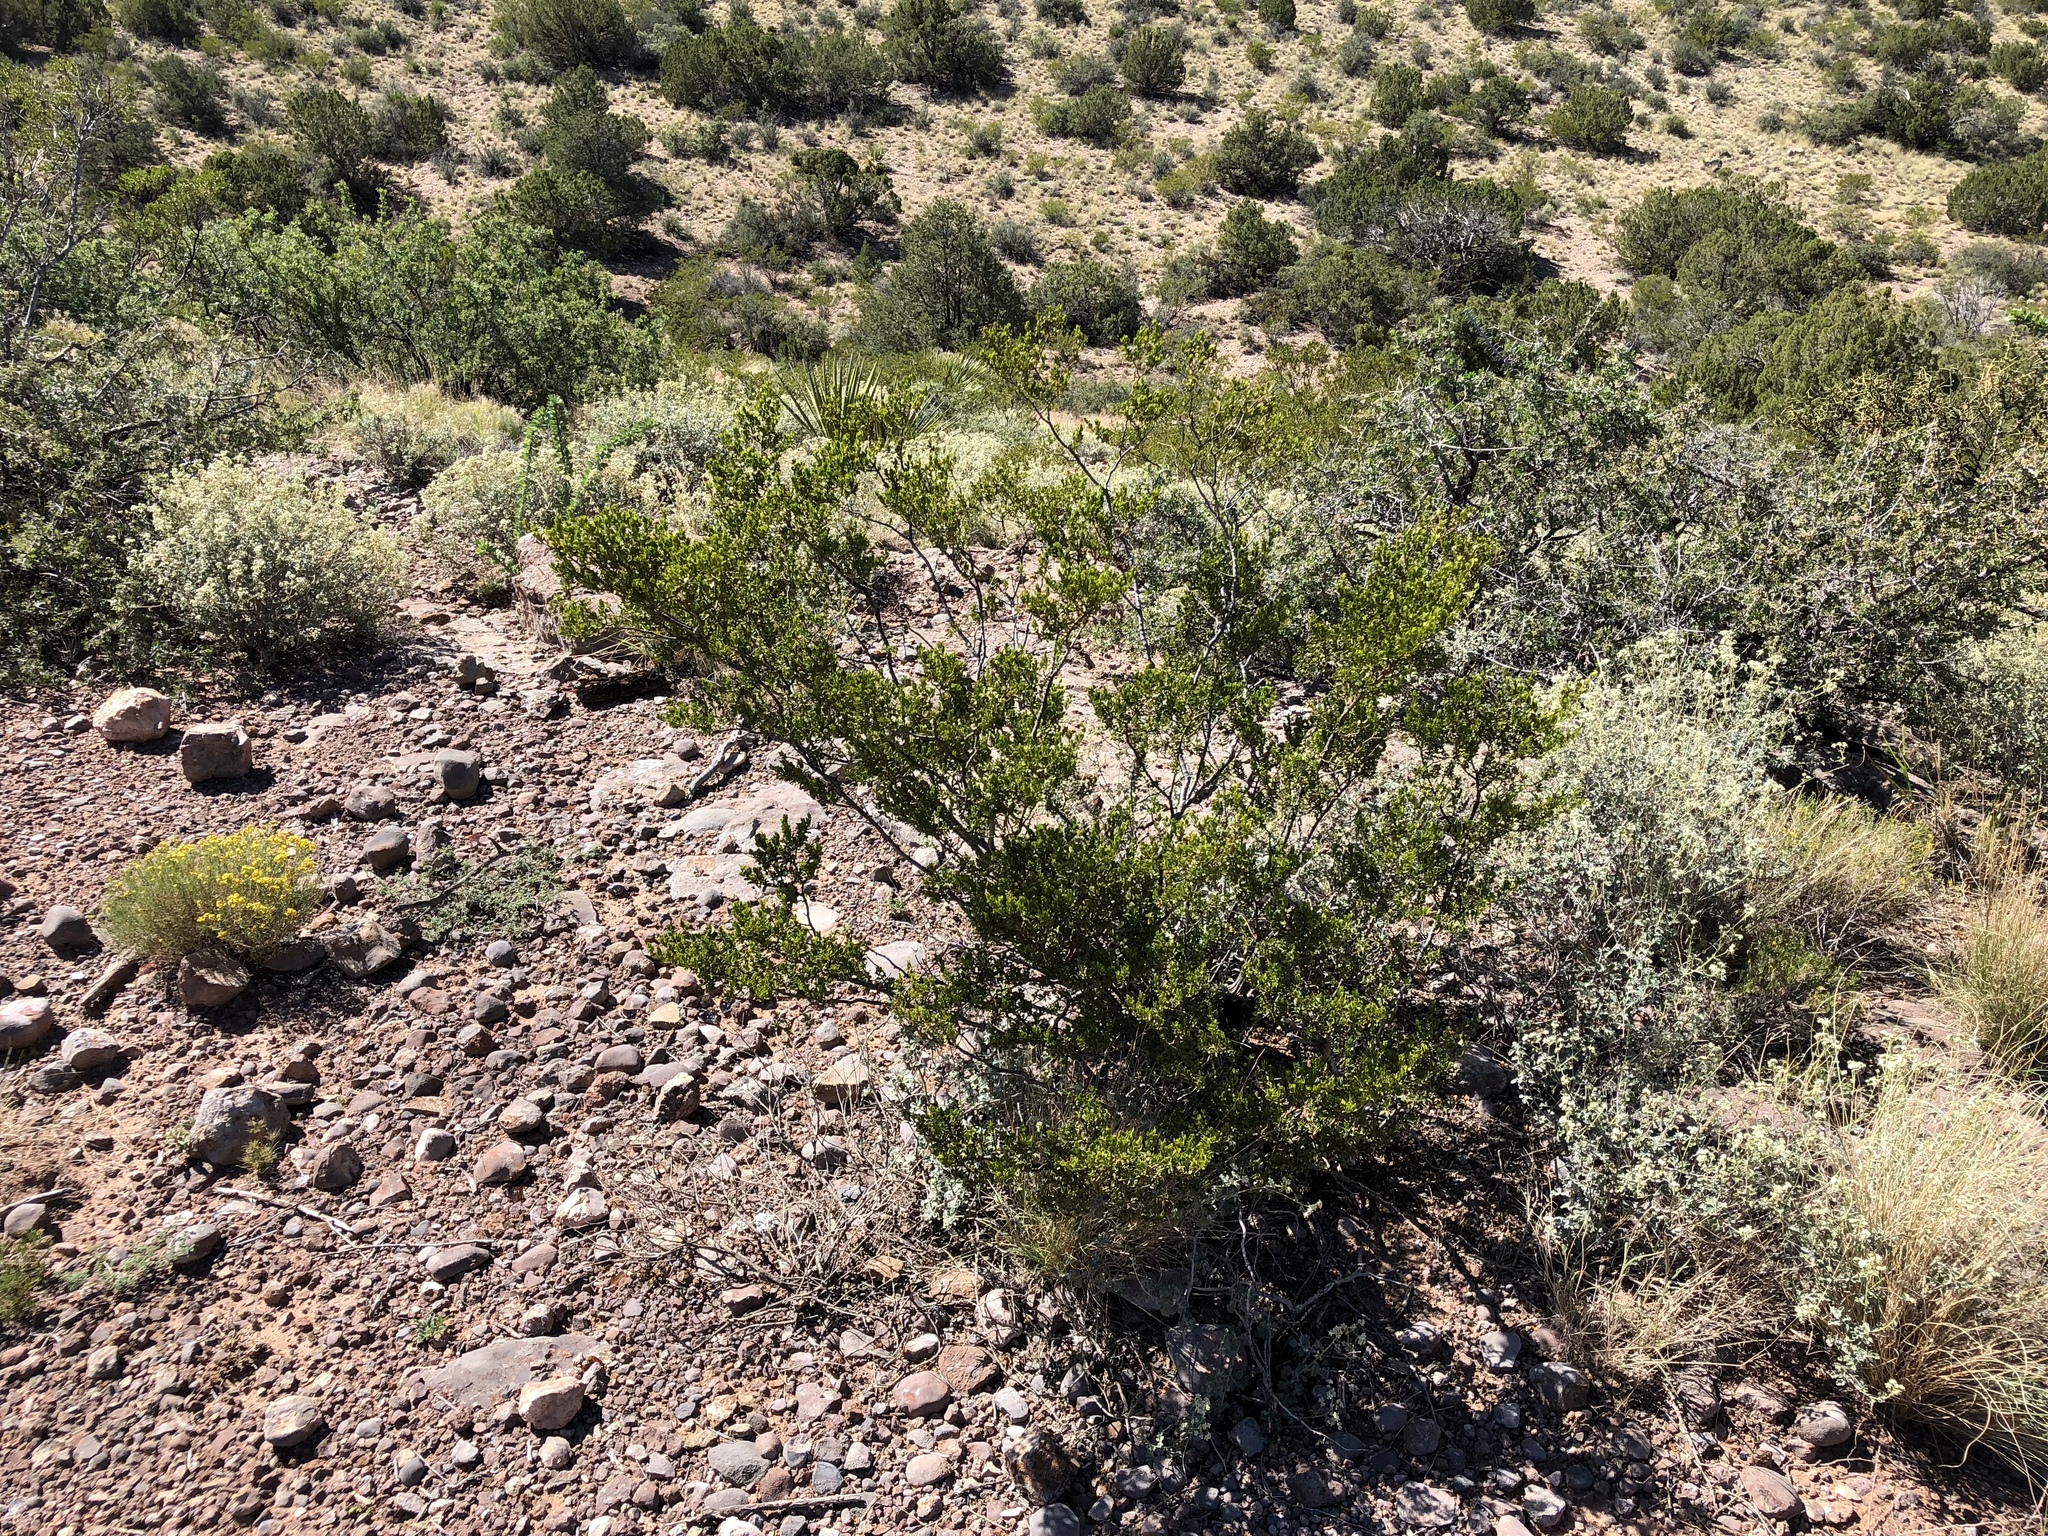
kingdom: Plantae
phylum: Tracheophyta
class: Magnoliopsida
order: Zygophyllales
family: Zygophyllaceae
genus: Larrea
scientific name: Larrea tridentata
